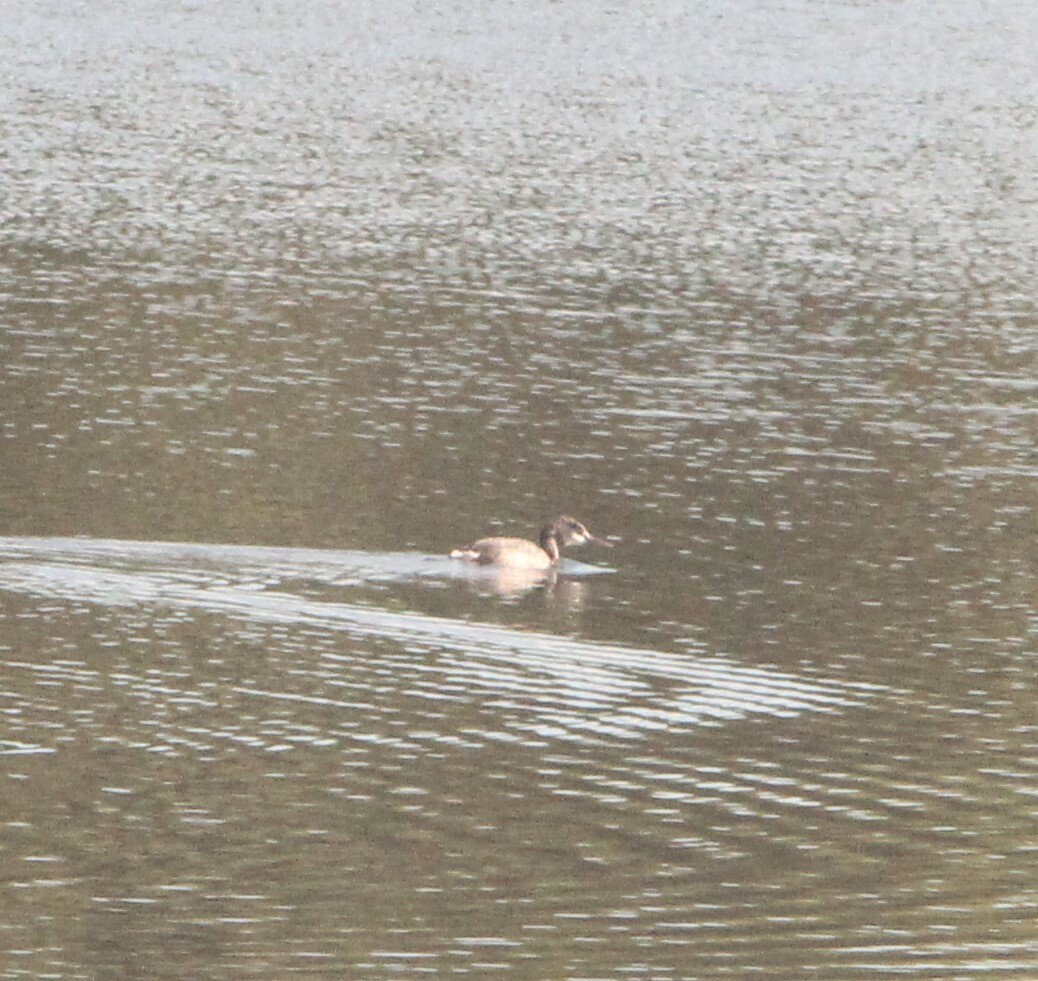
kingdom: Animalia
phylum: Chordata
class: Aves
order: Podicipediformes
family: Podicipedidae
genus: Podiceps
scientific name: Podiceps cristatus
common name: Great crested grebe
